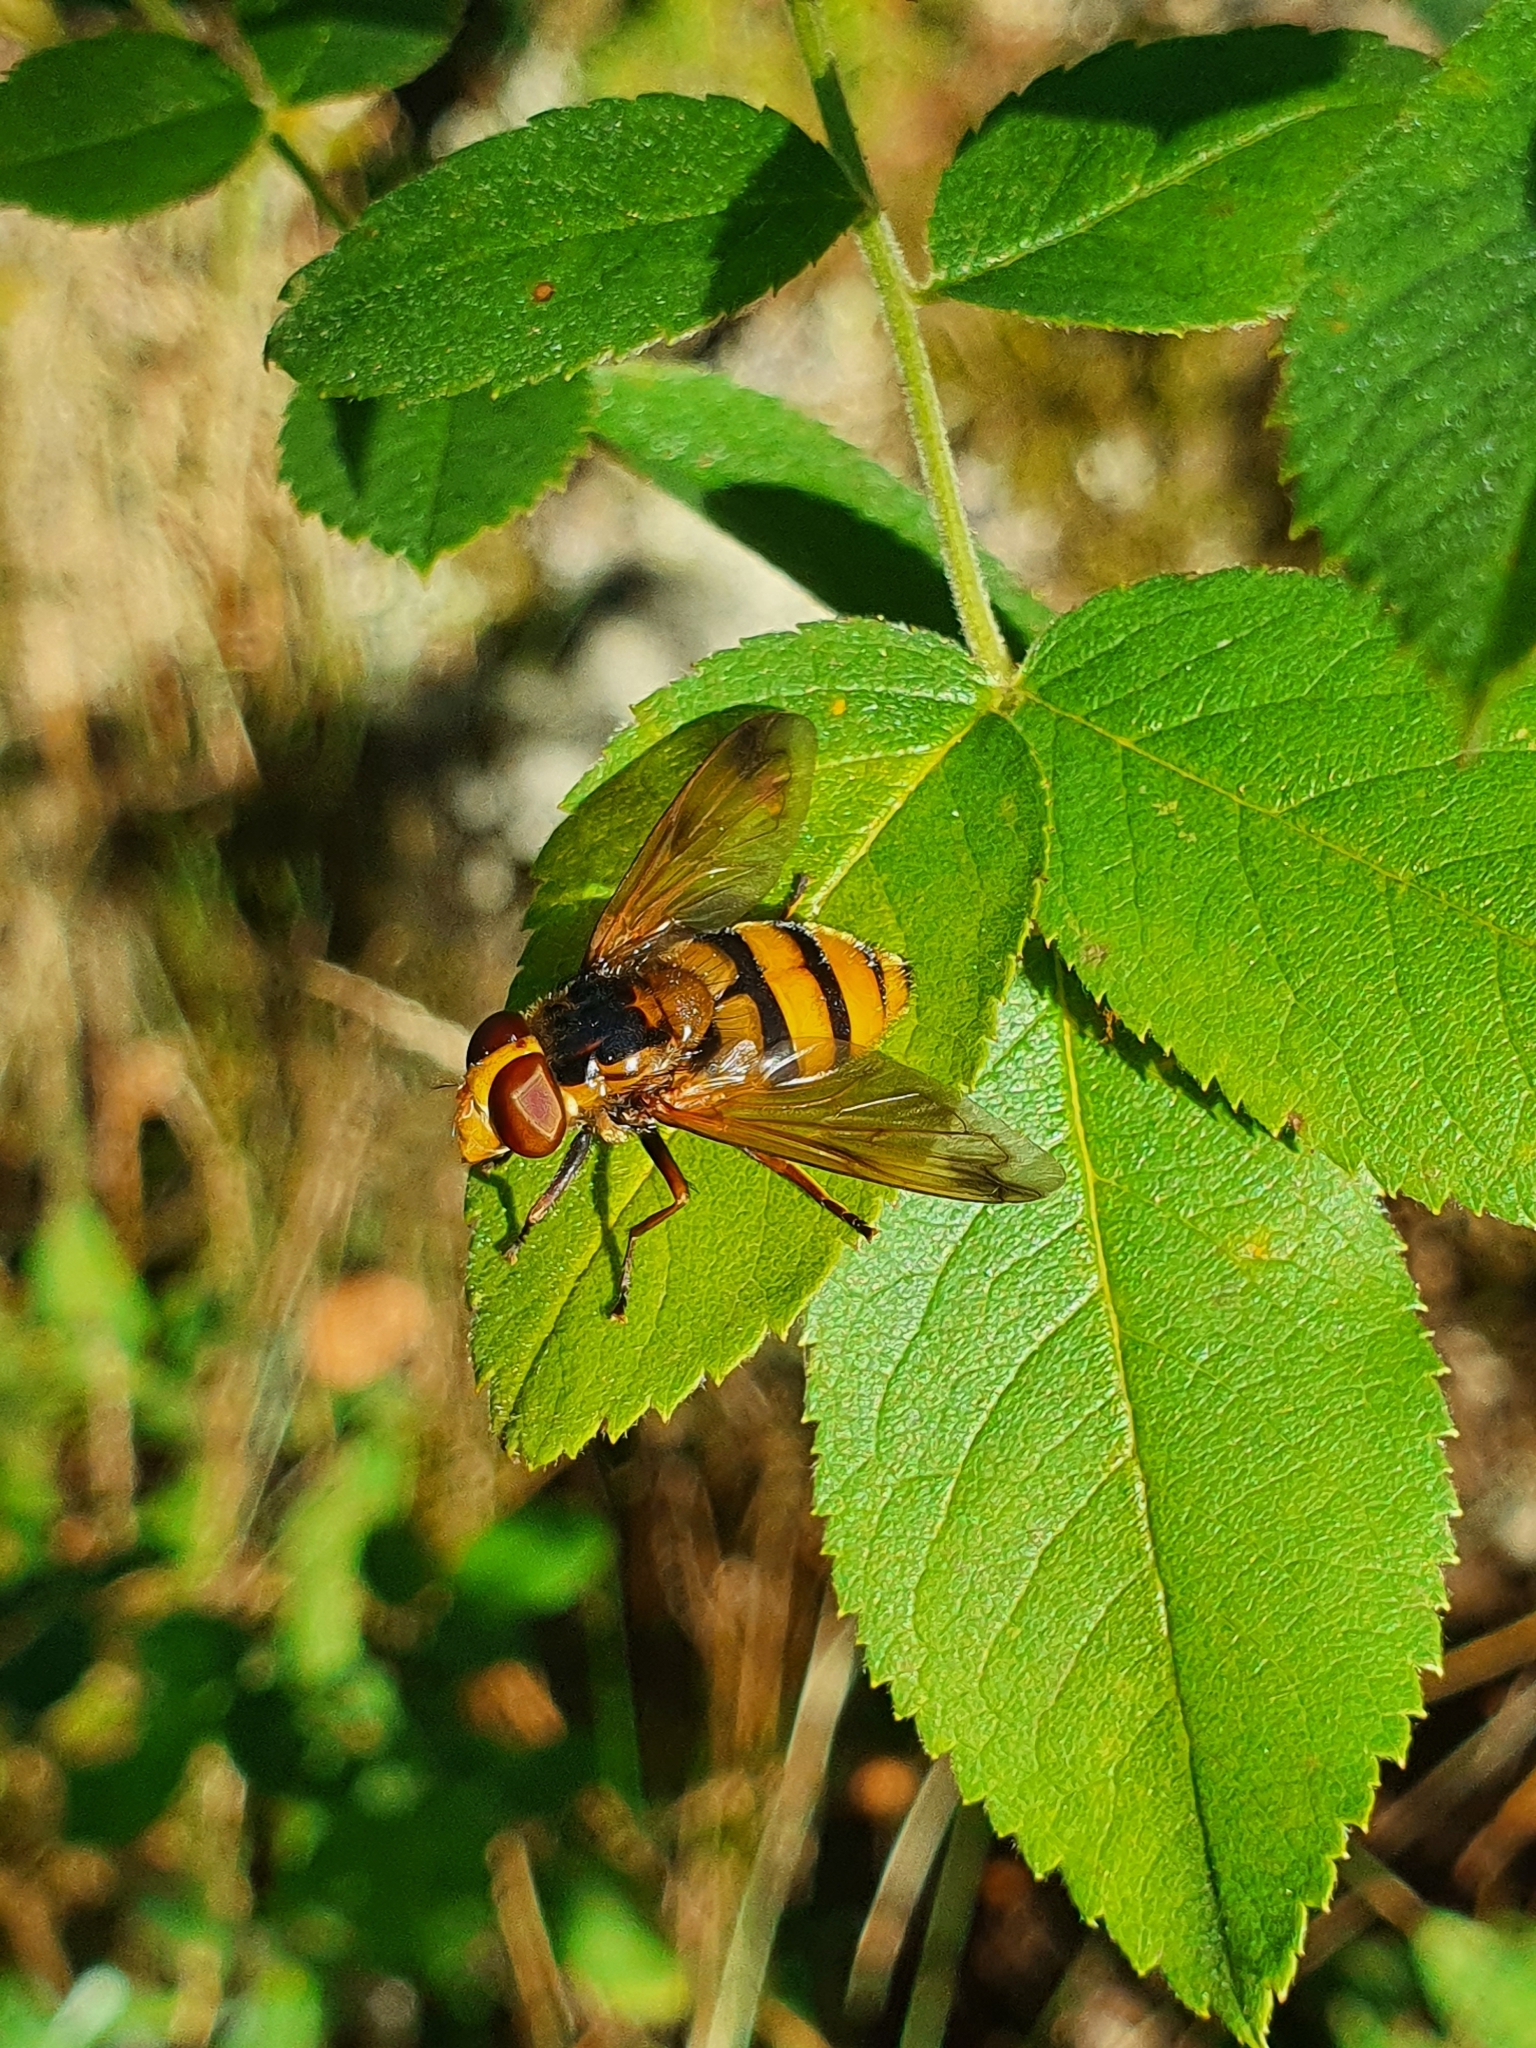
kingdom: Animalia
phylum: Arthropoda
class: Insecta
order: Diptera
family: Syrphidae
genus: Volucella
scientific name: Volucella inanis
